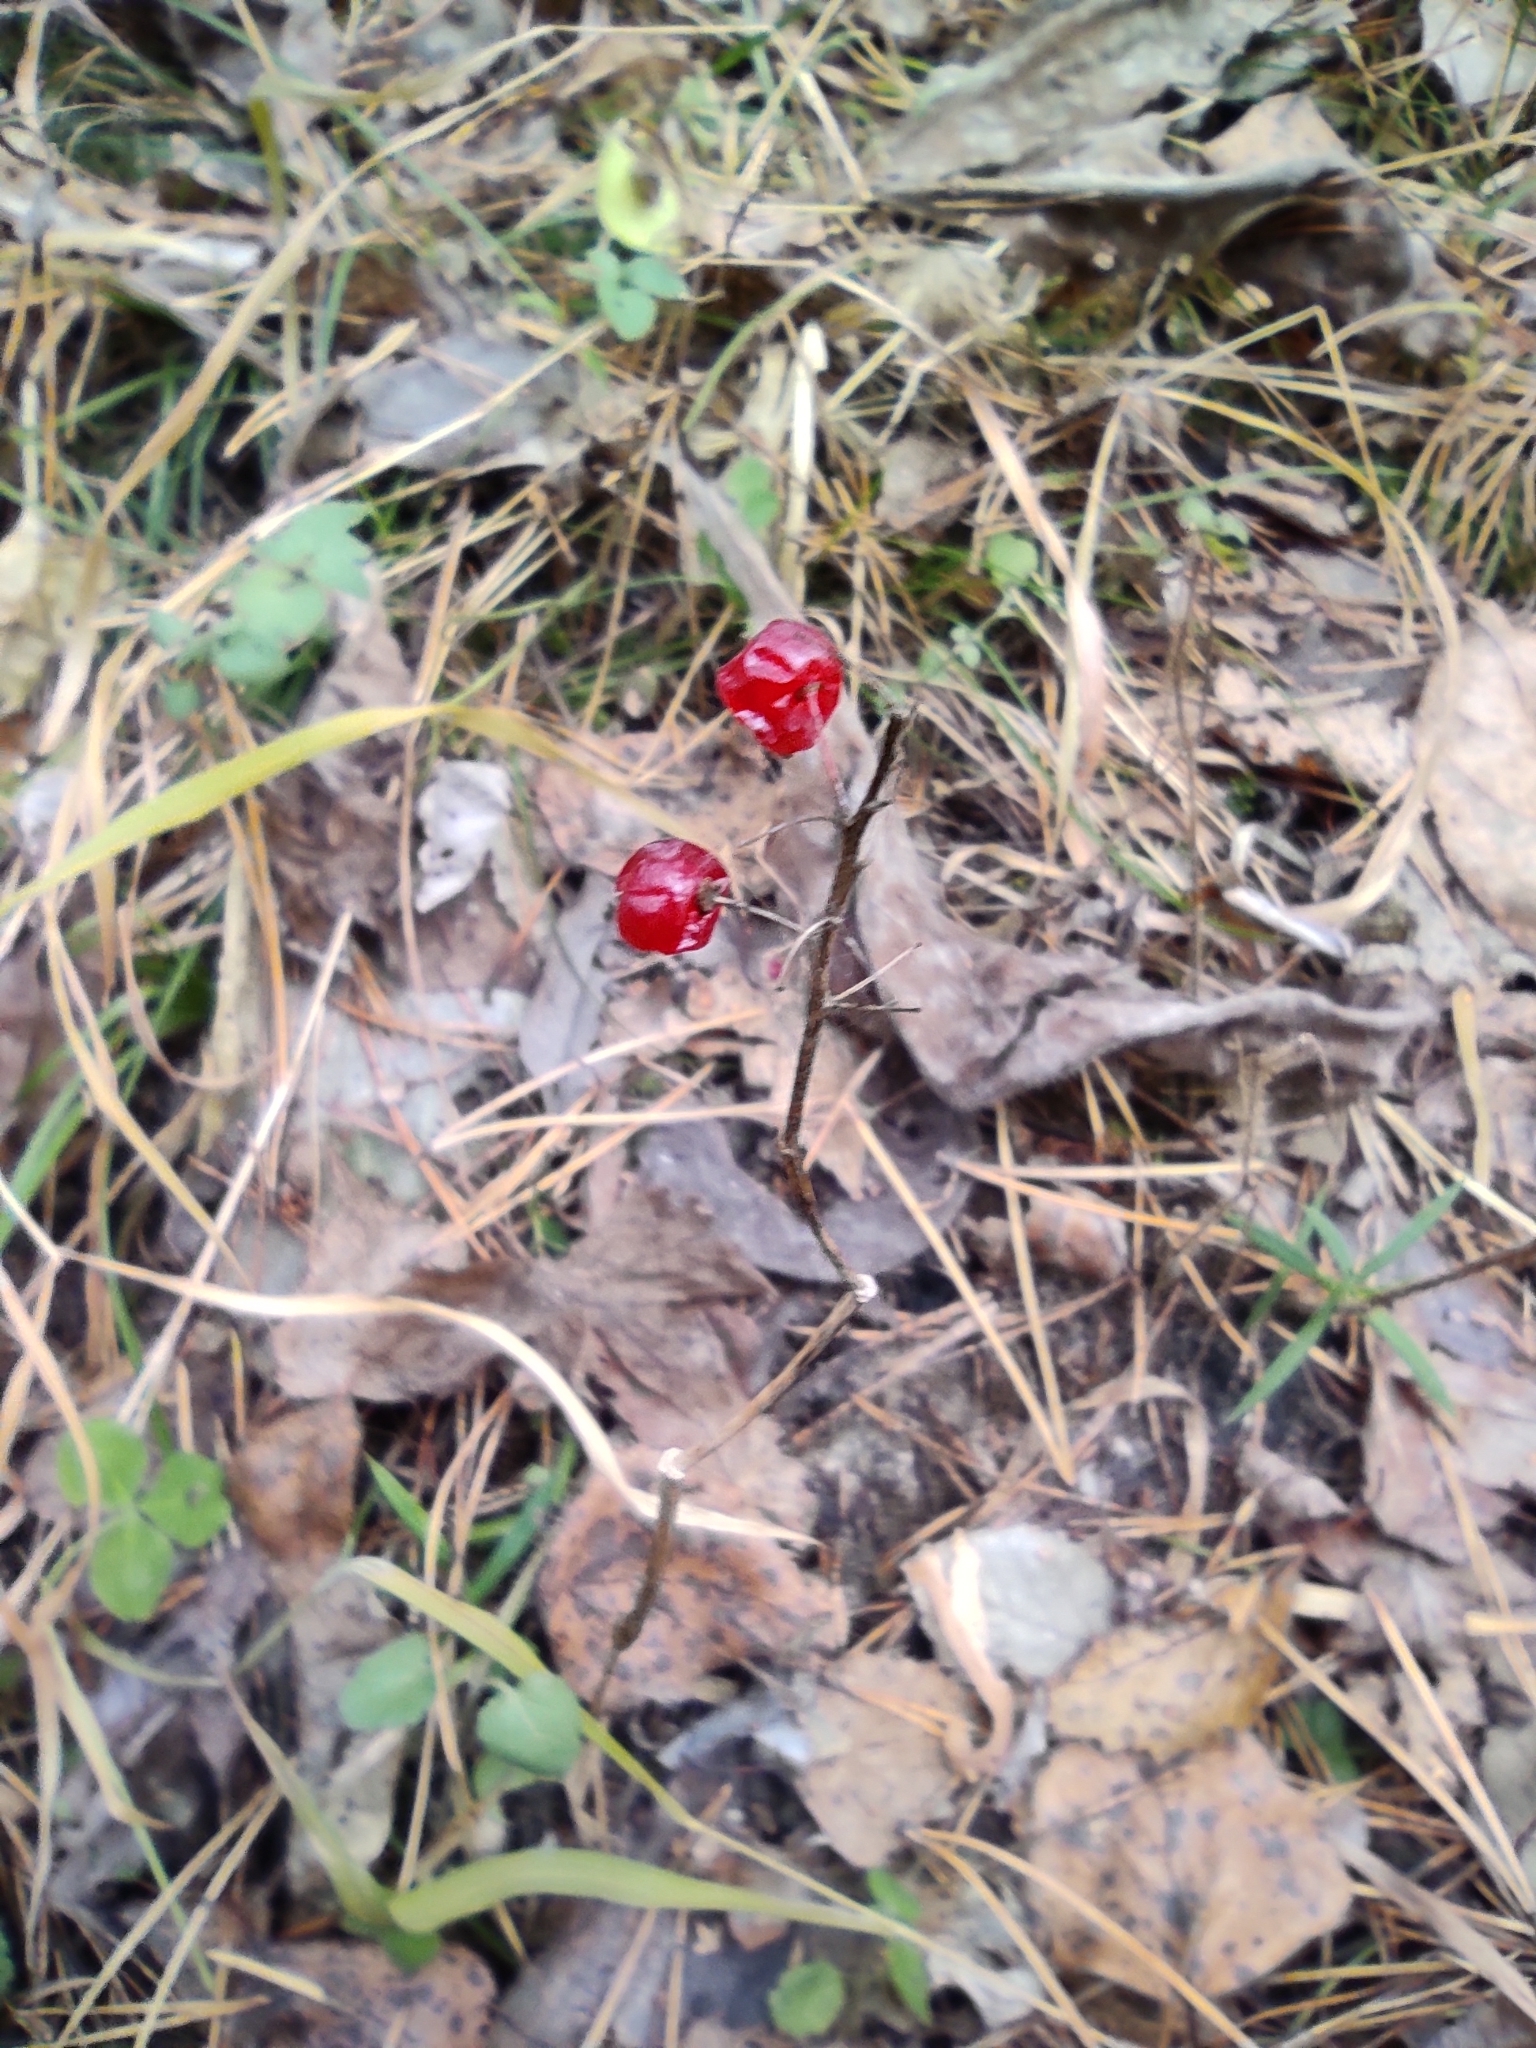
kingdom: Plantae
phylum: Tracheophyta
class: Liliopsida
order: Asparagales
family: Asparagaceae
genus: Maianthemum
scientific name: Maianthemum bifolium
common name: May lily
